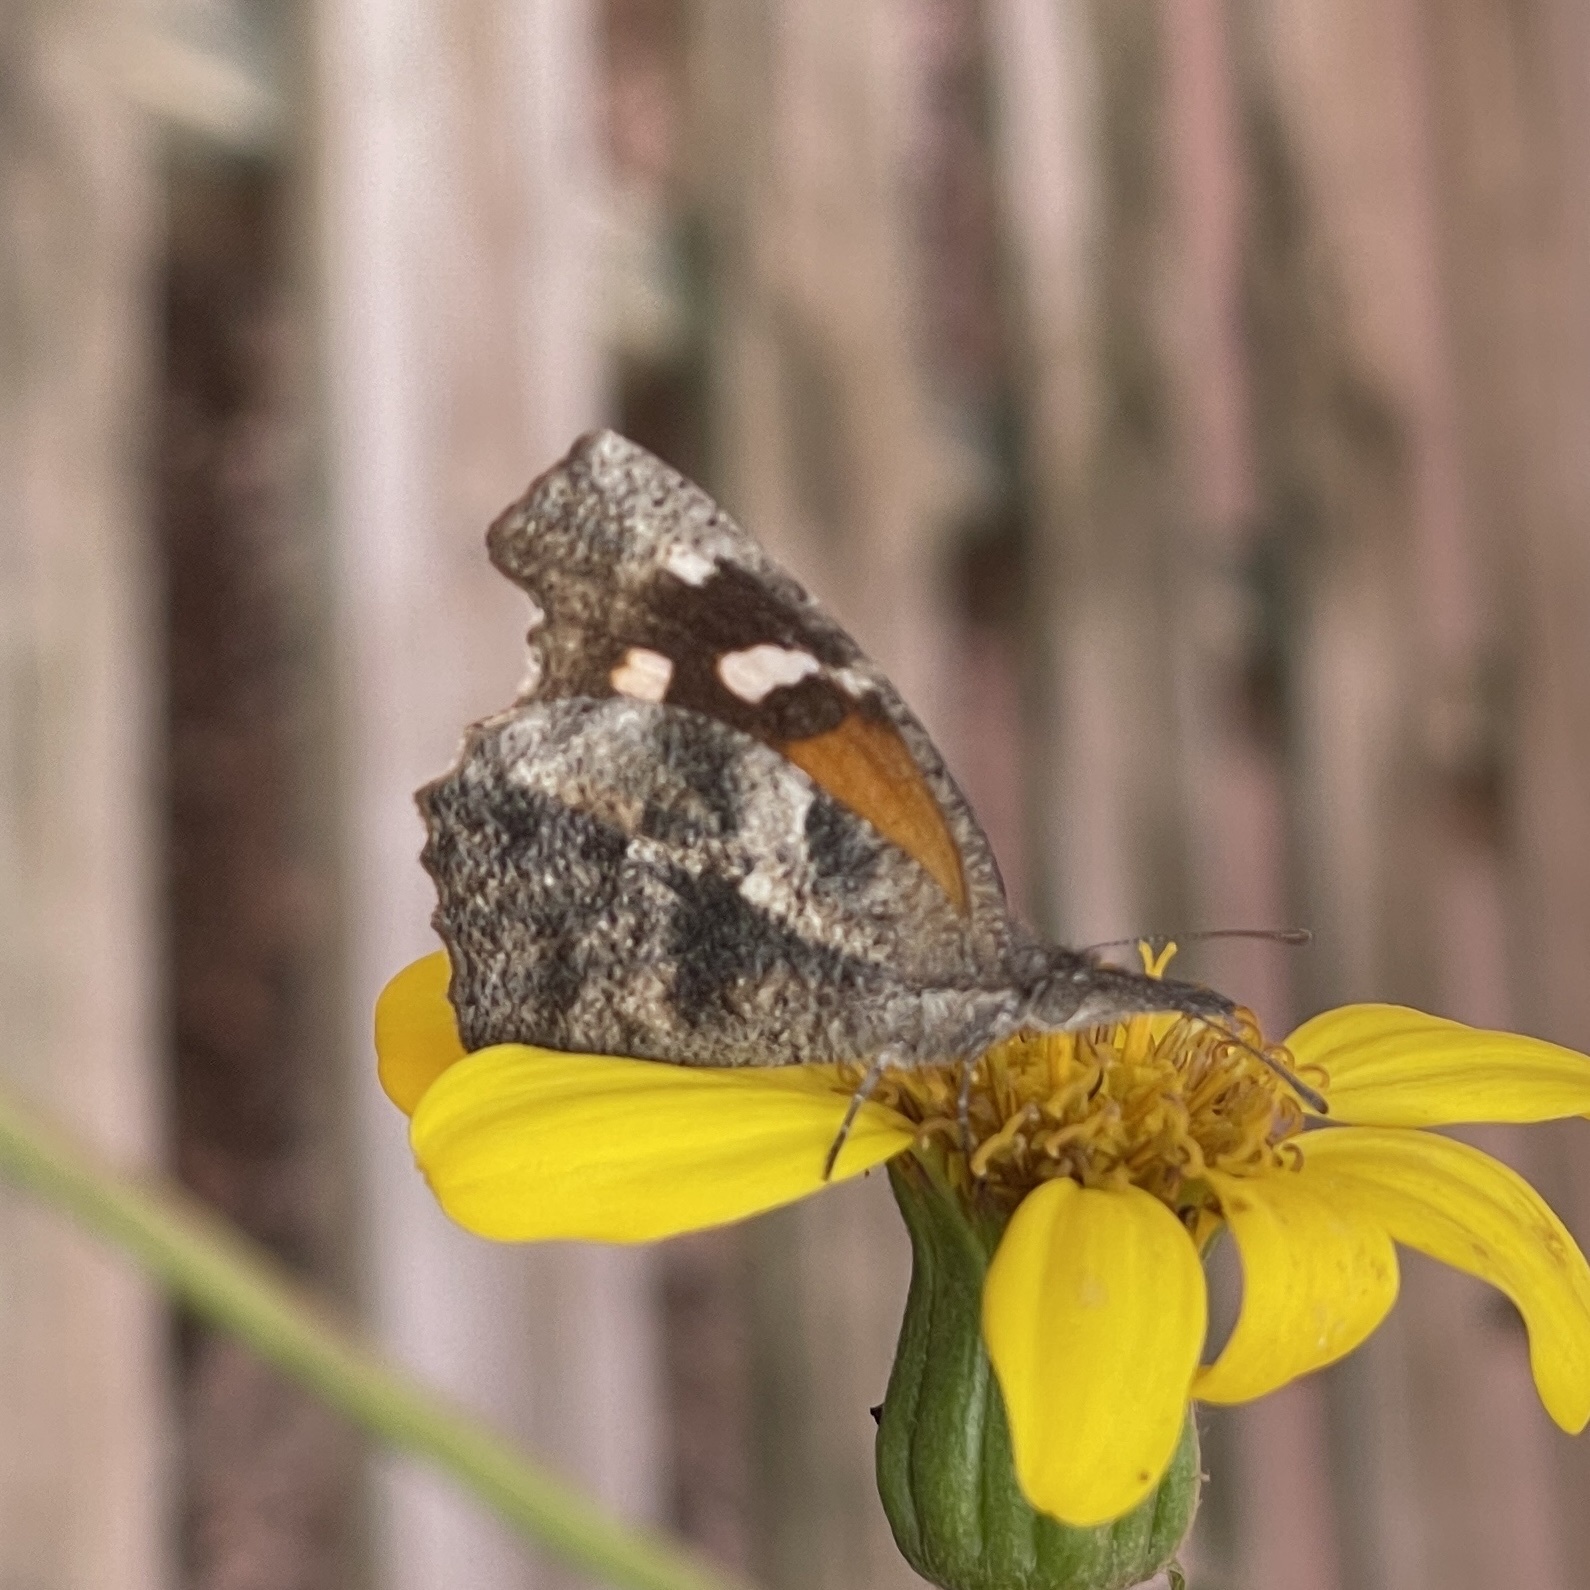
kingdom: Animalia
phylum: Arthropoda
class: Insecta
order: Lepidoptera
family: Nymphalidae
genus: Libytheana
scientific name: Libytheana carinenta
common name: American snout
